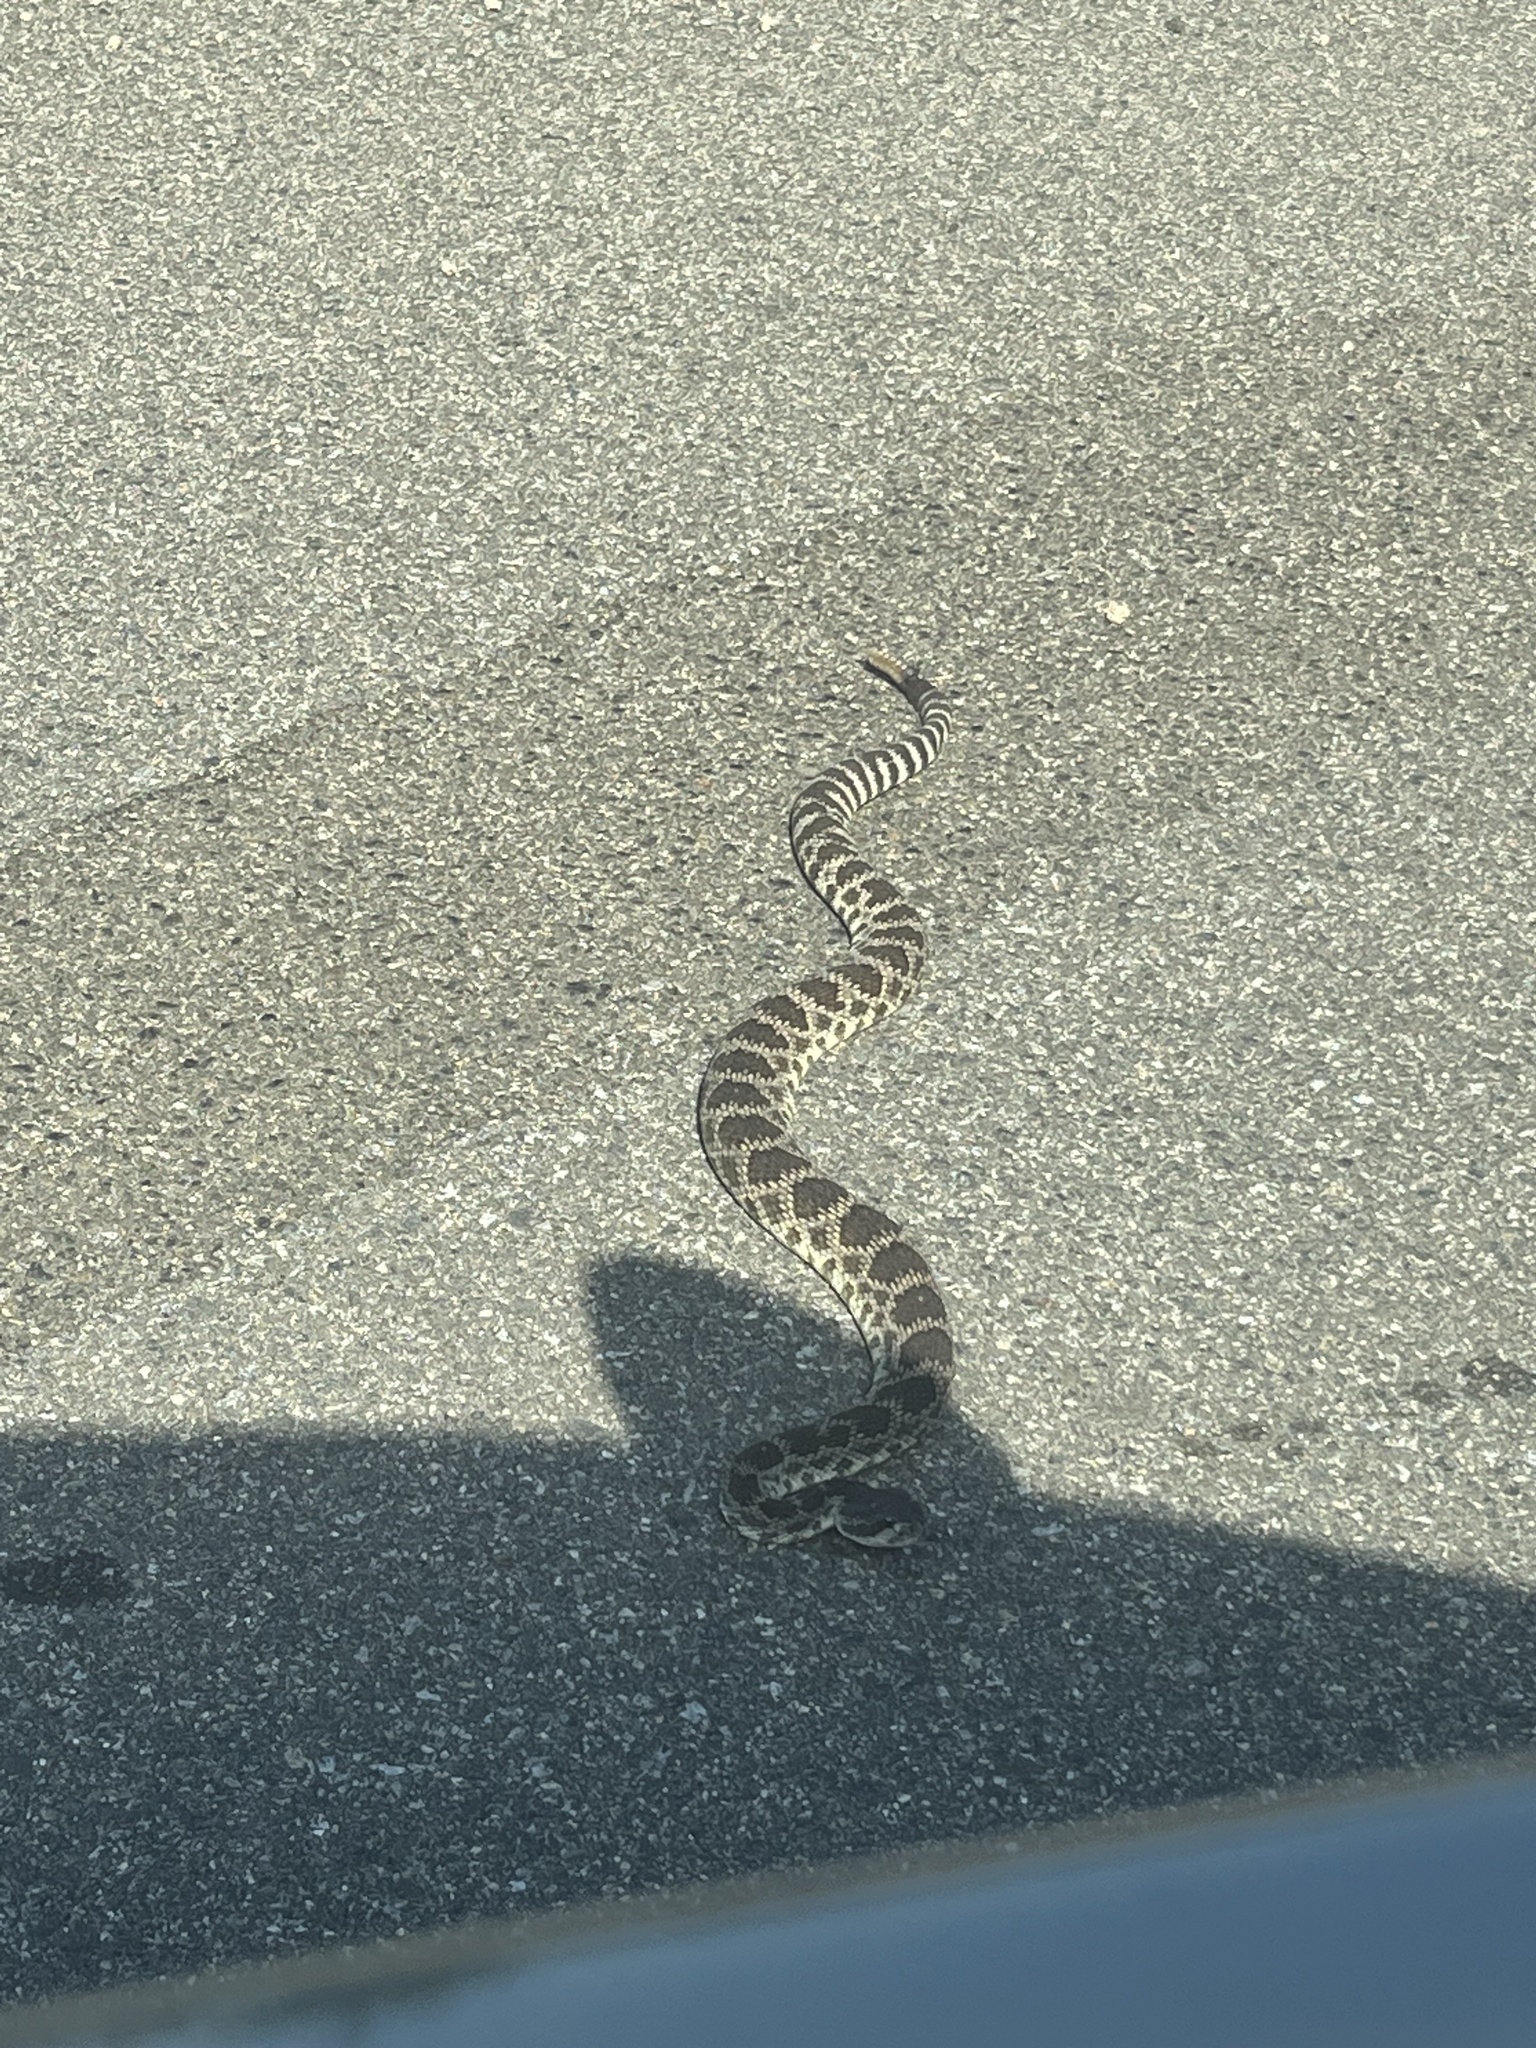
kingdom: Animalia
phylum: Chordata
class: Squamata
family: Viperidae
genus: Crotalus
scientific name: Crotalus oreganus
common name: Abyssus
